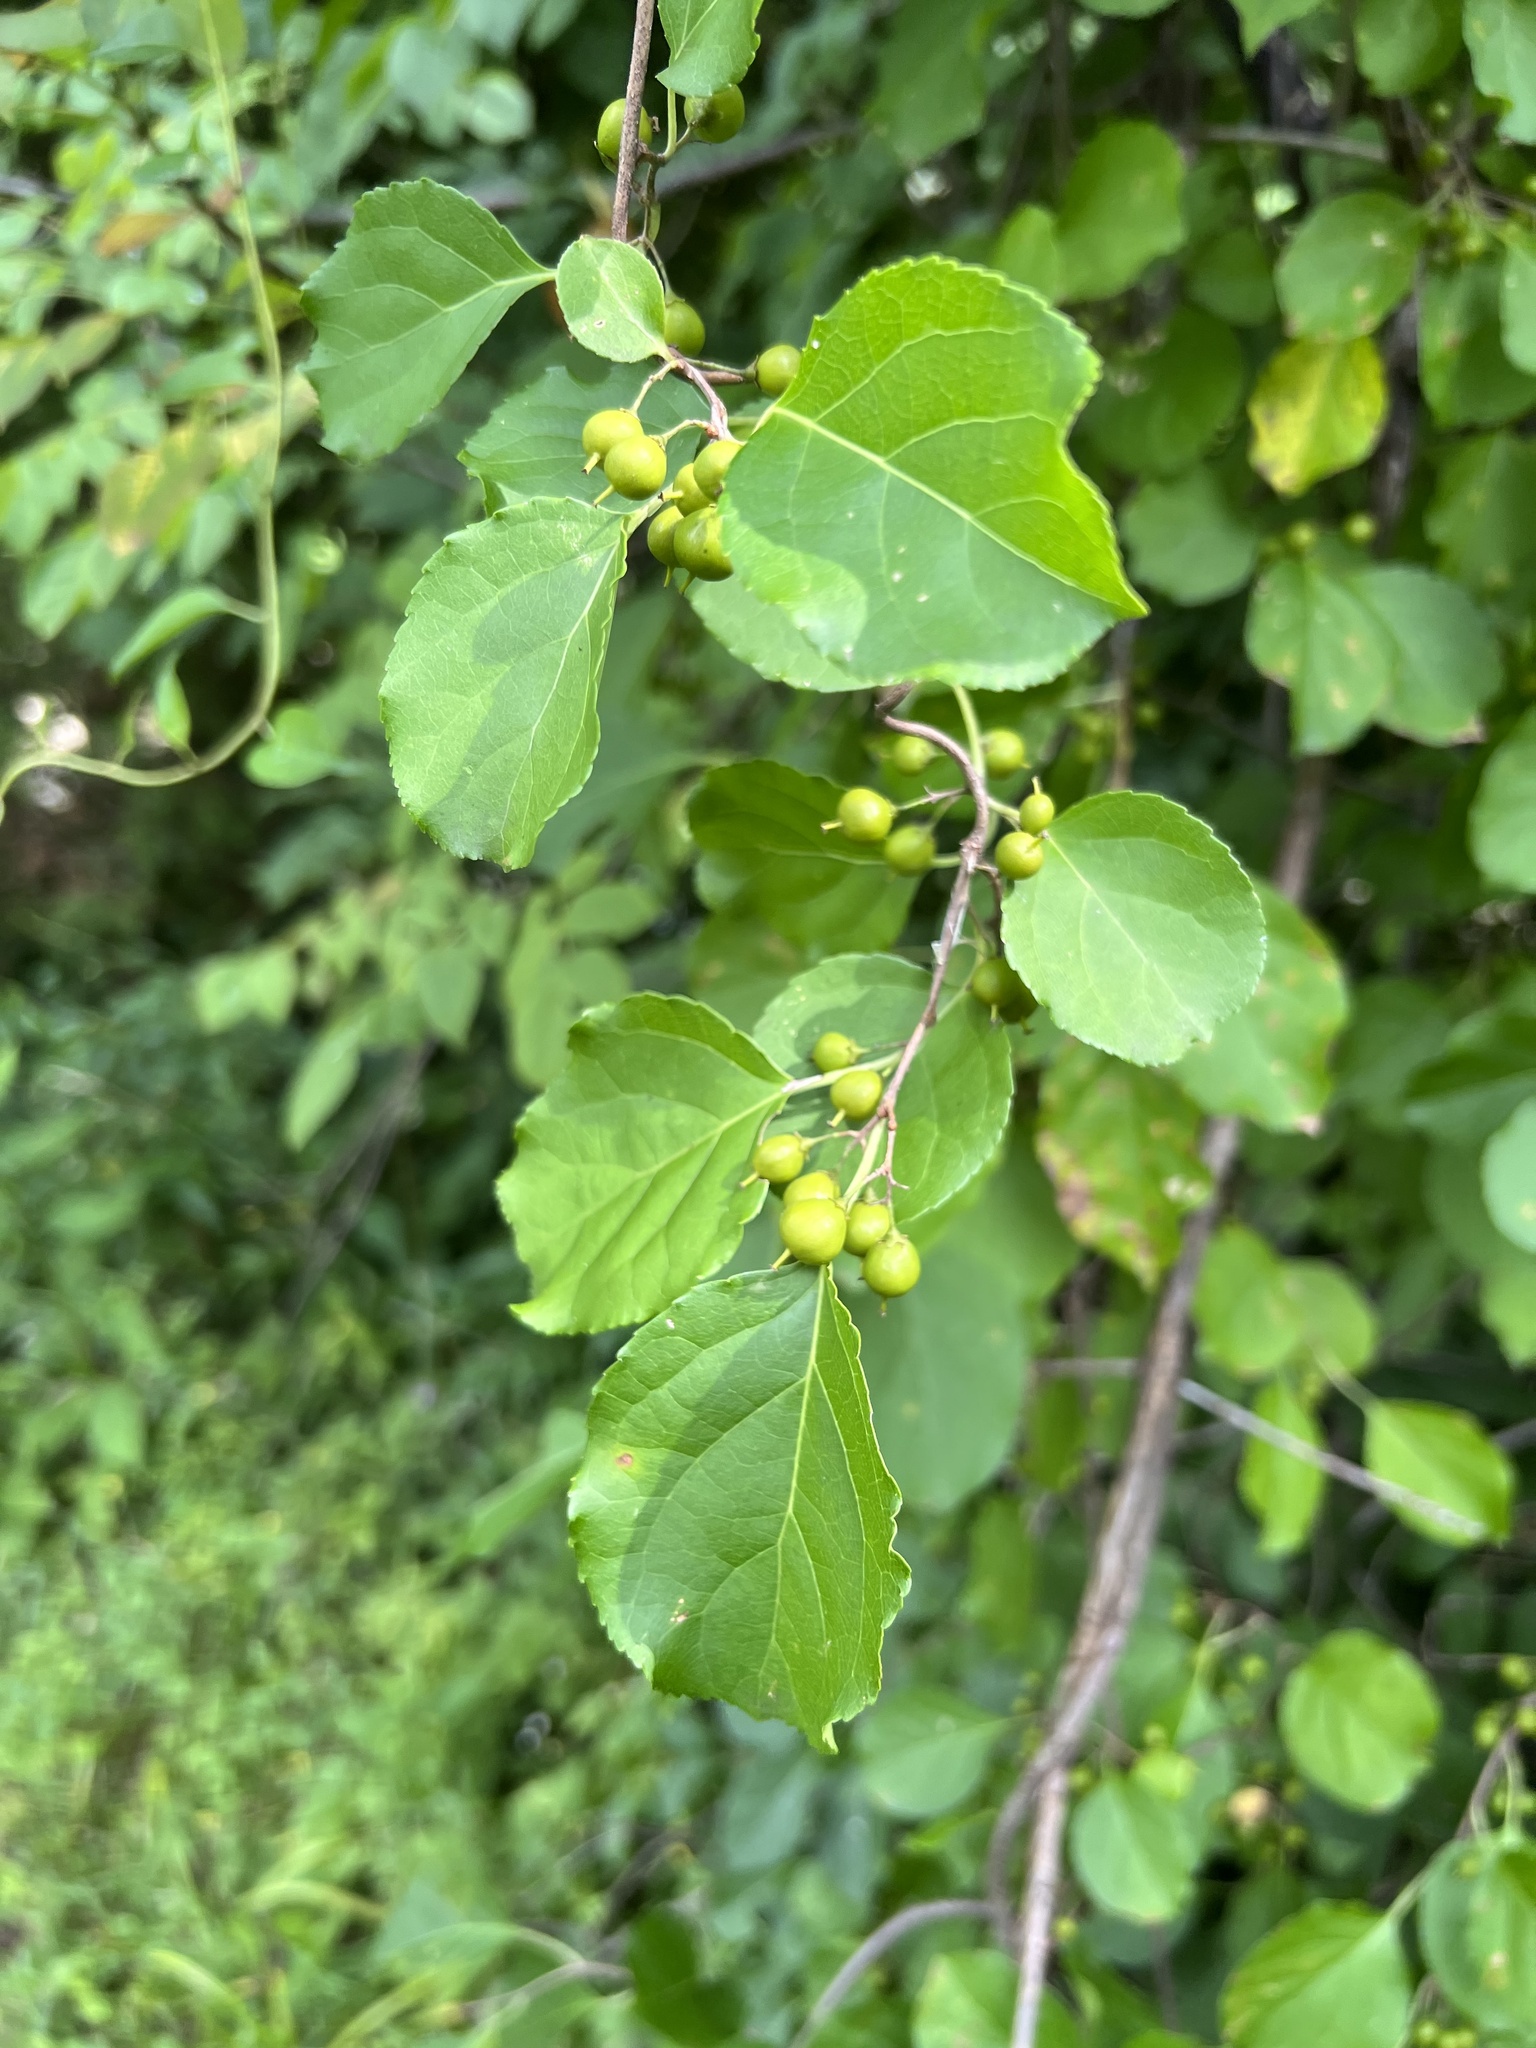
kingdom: Plantae
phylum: Tracheophyta
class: Magnoliopsida
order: Celastrales
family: Celastraceae
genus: Celastrus
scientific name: Celastrus orbiculatus
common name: Oriental bittersweet
